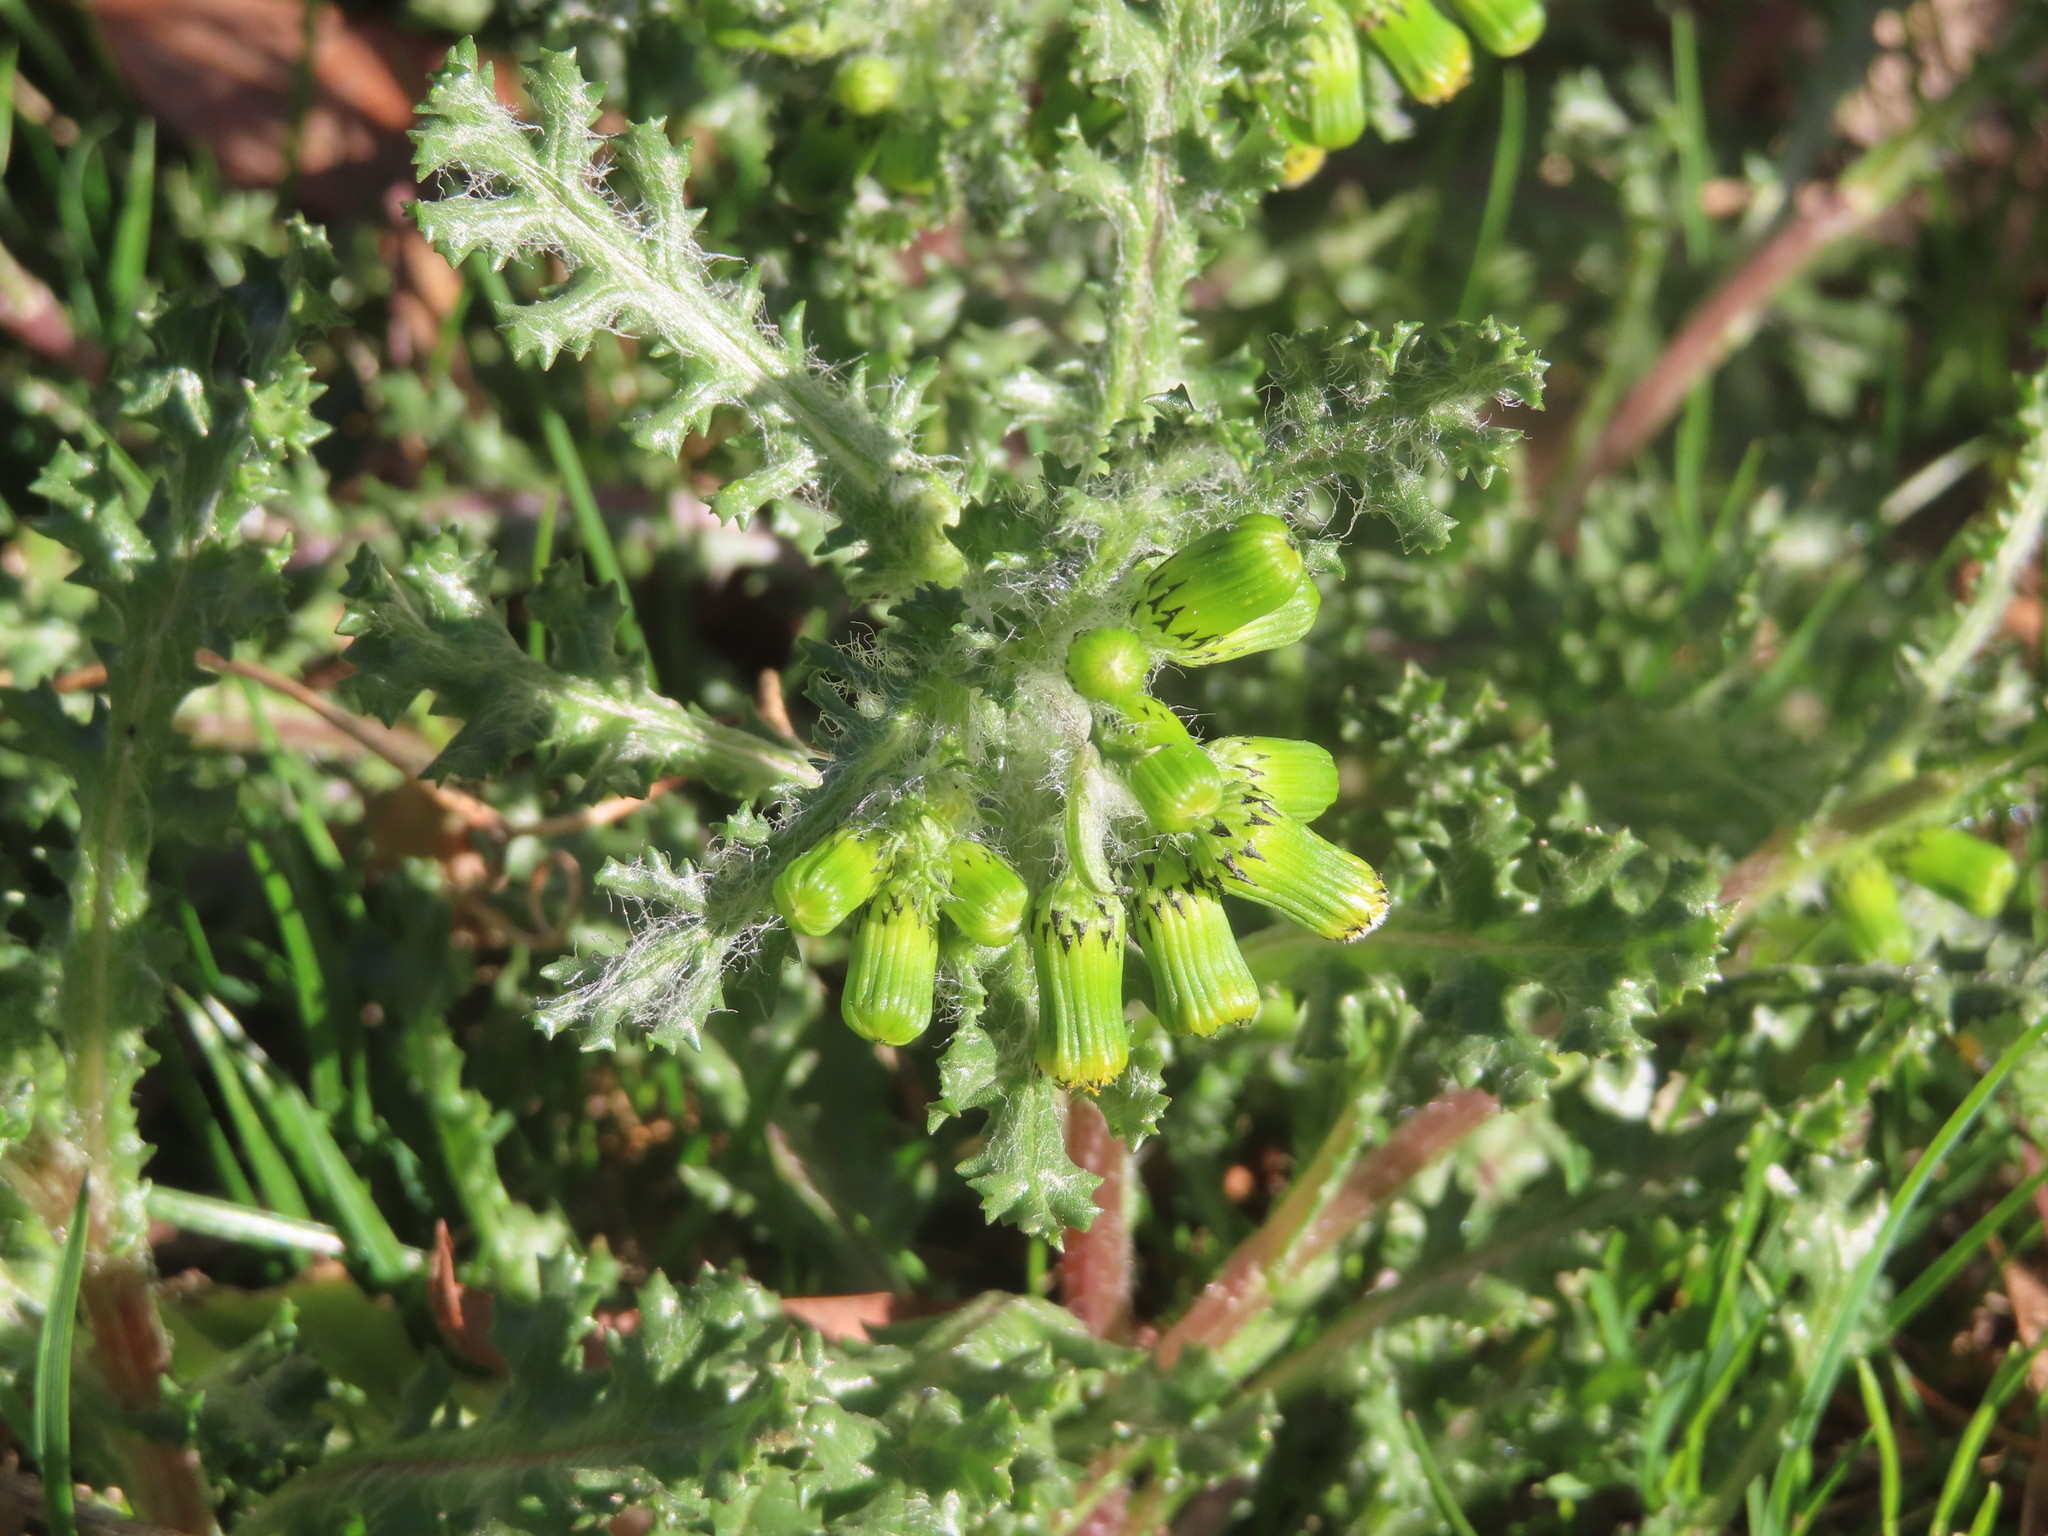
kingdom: Plantae
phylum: Tracheophyta
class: Magnoliopsida
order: Asterales
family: Asteraceae
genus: Senecio
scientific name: Senecio vulgaris
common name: Old-man-in-the-spring
